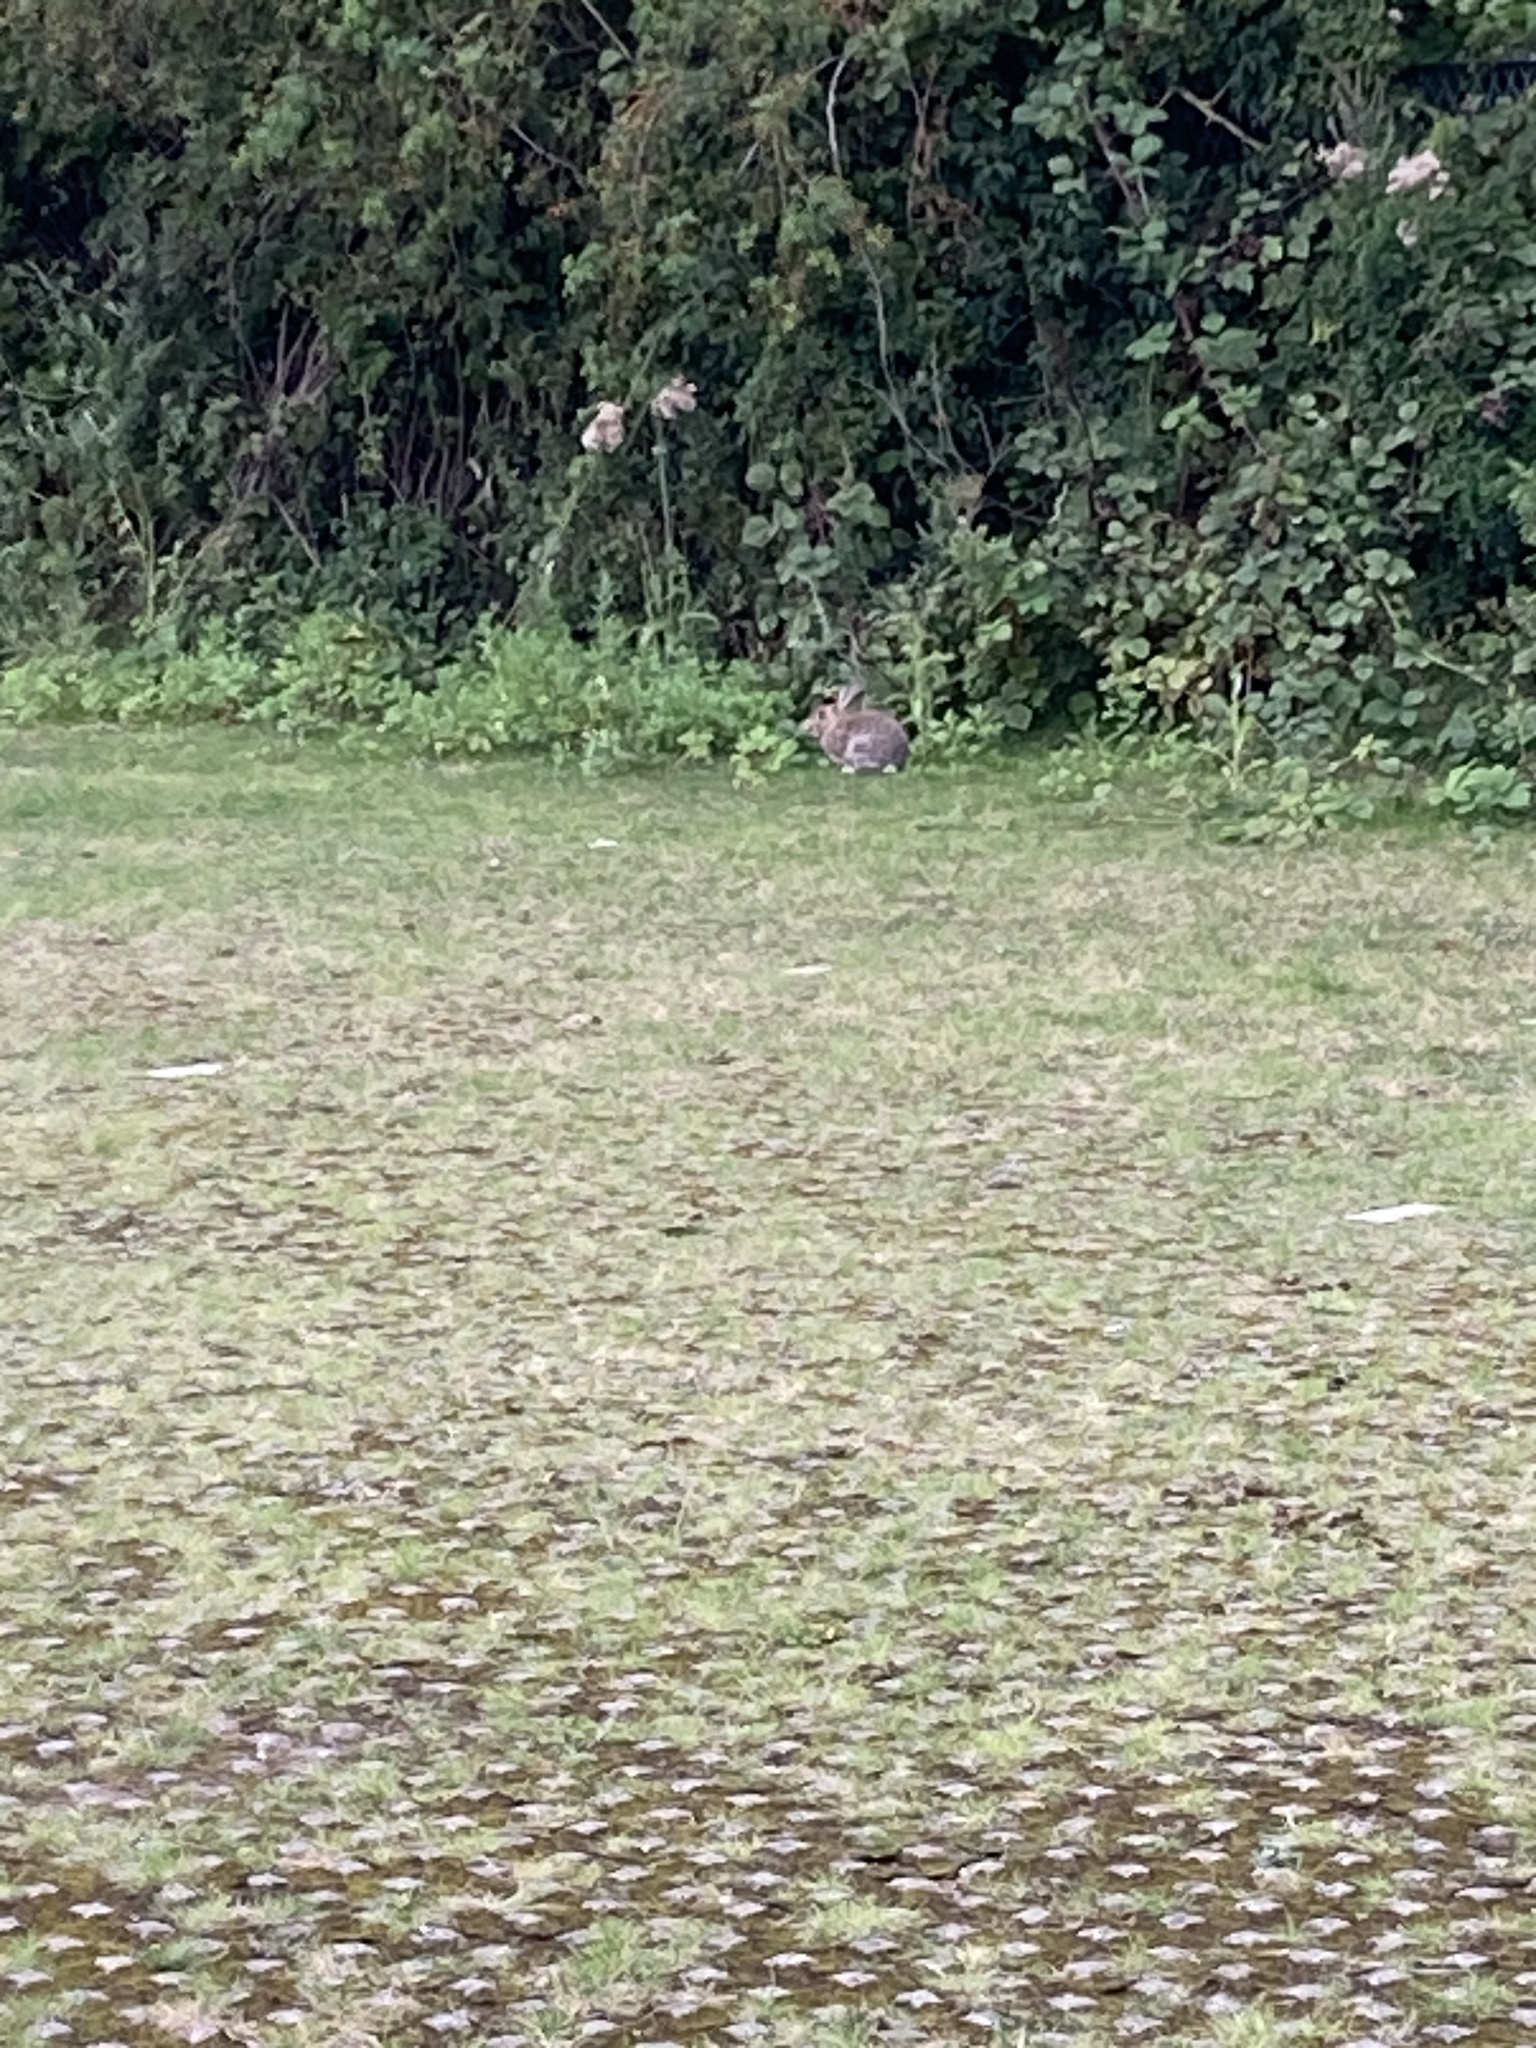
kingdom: Animalia
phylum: Chordata
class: Mammalia
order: Lagomorpha
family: Leporidae
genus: Oryctolagus
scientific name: Oryctolagus cuniculus
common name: European rabbit
